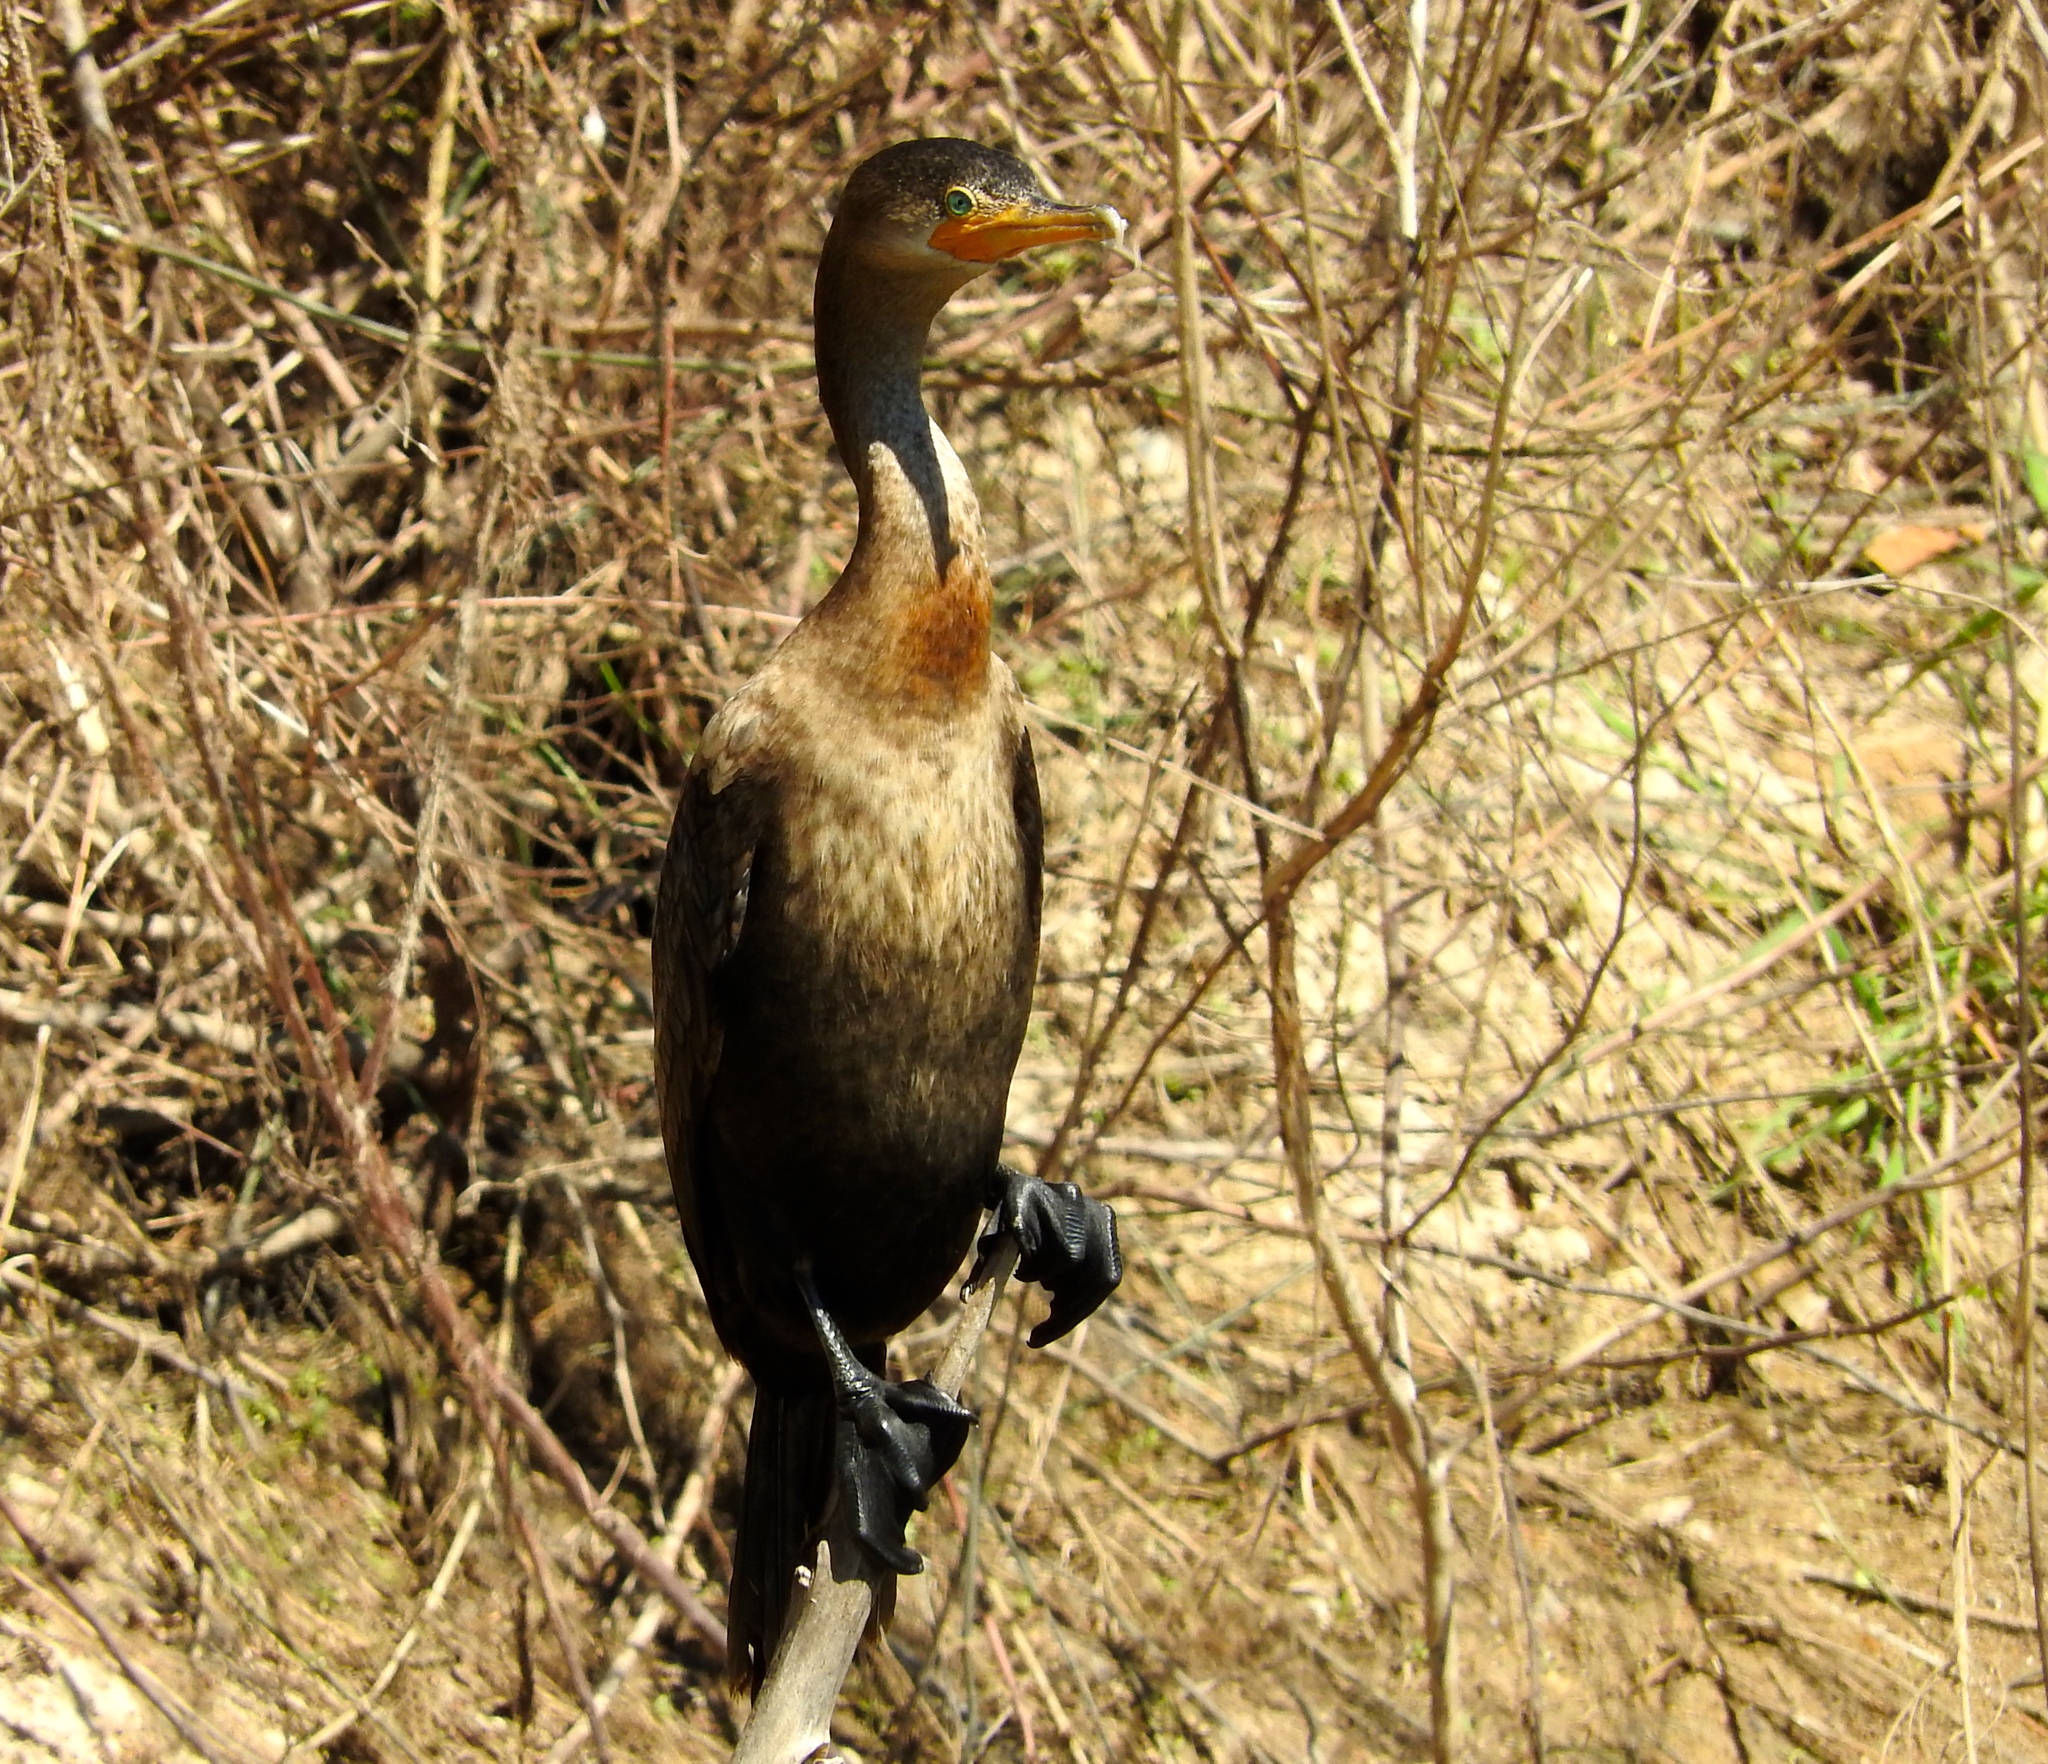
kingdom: Animalia
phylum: Chordata
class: Aves
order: Suliformes
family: Phalacrocoracidae
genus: Phalacrocorax
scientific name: Phalacrocorax brasilianus
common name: Neotropic cormorant
